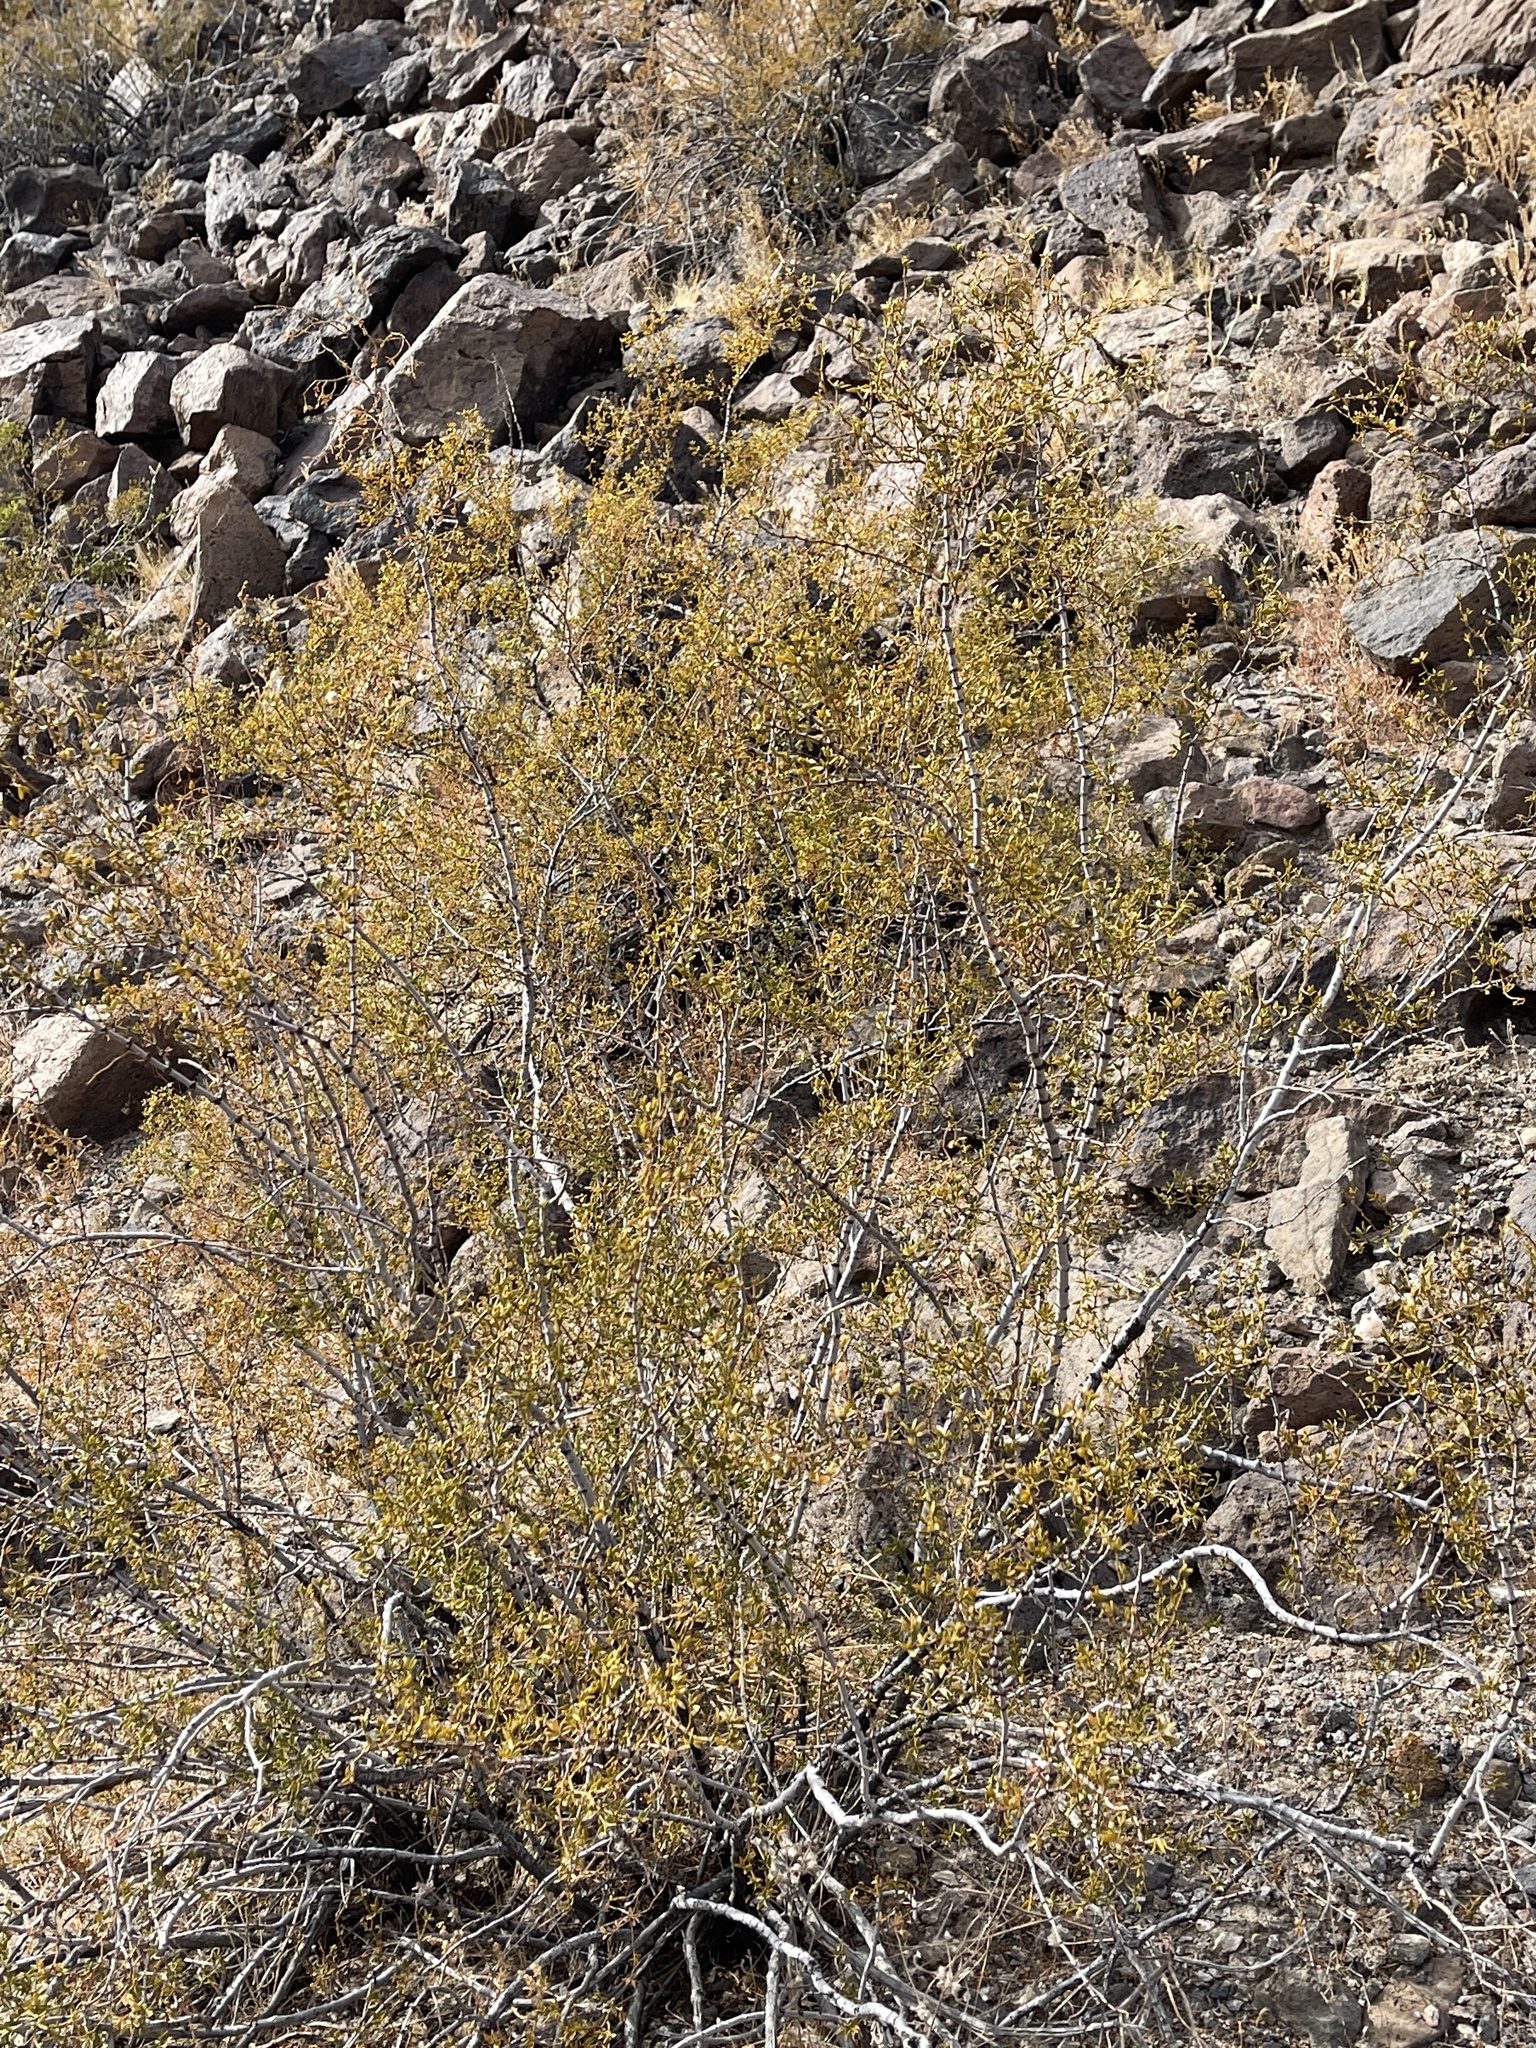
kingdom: Plantae
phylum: Tracheophyta
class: Magnoliopsida
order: Zygophyllales
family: Zygophyllaceae
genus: Larrea
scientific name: Larrea tridentata
